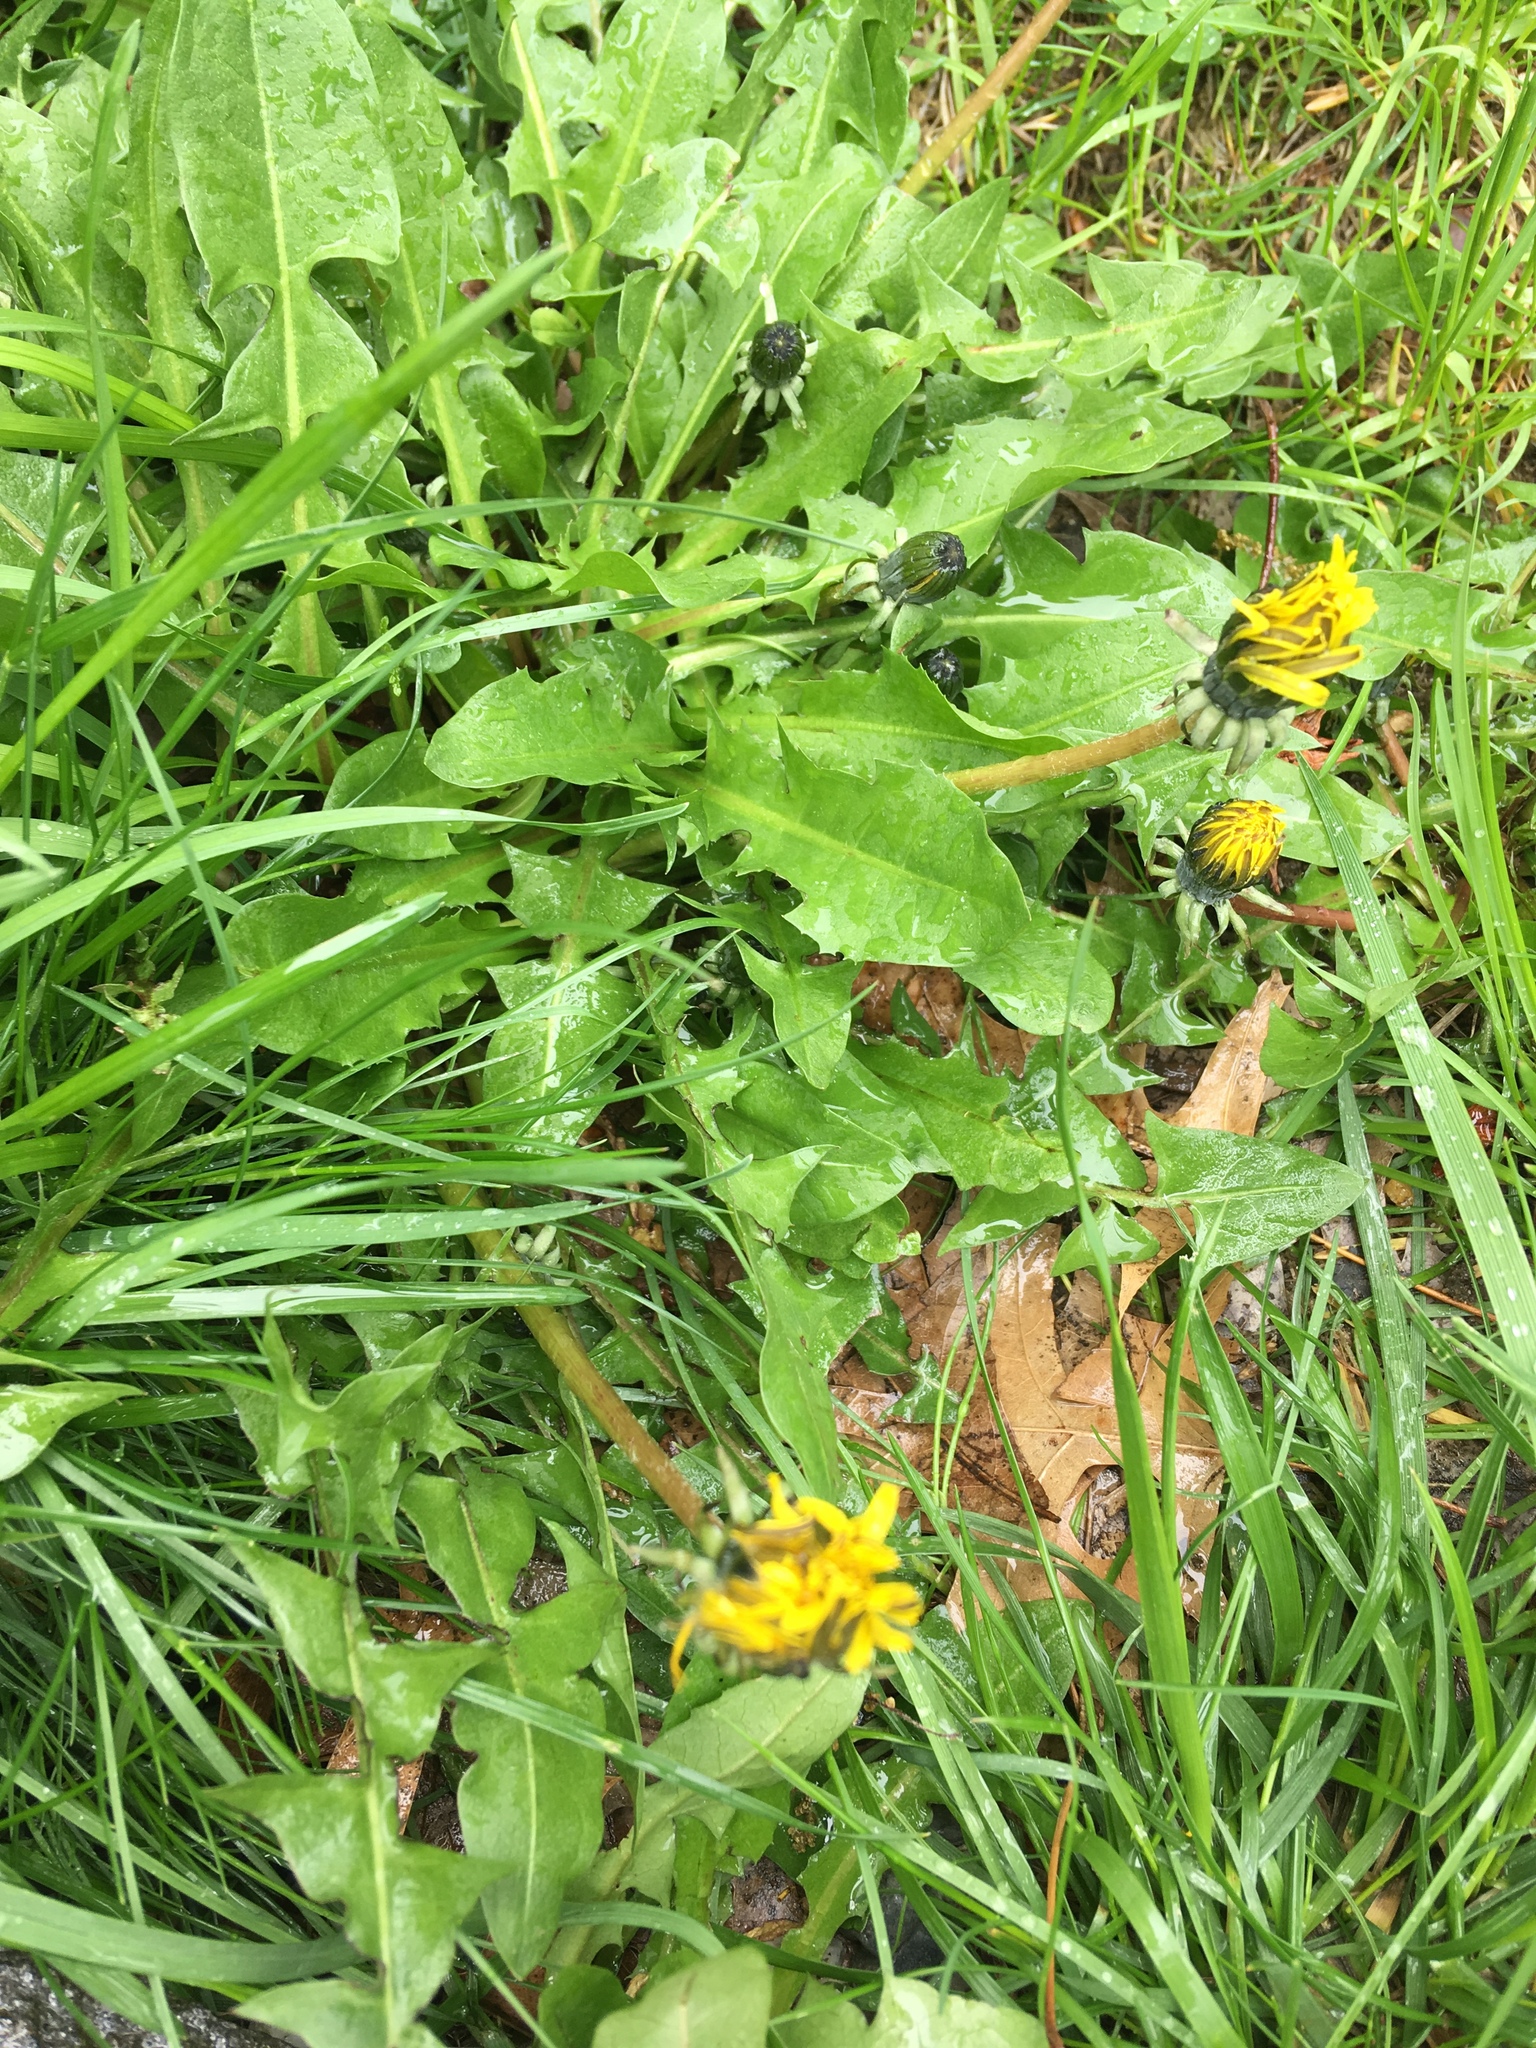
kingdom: Plantae
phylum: Tracheophyta
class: Magnoliopsida
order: Asterales
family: Asteraceae
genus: Taraxacum
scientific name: Taraxacum officinale
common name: Common dandelion
